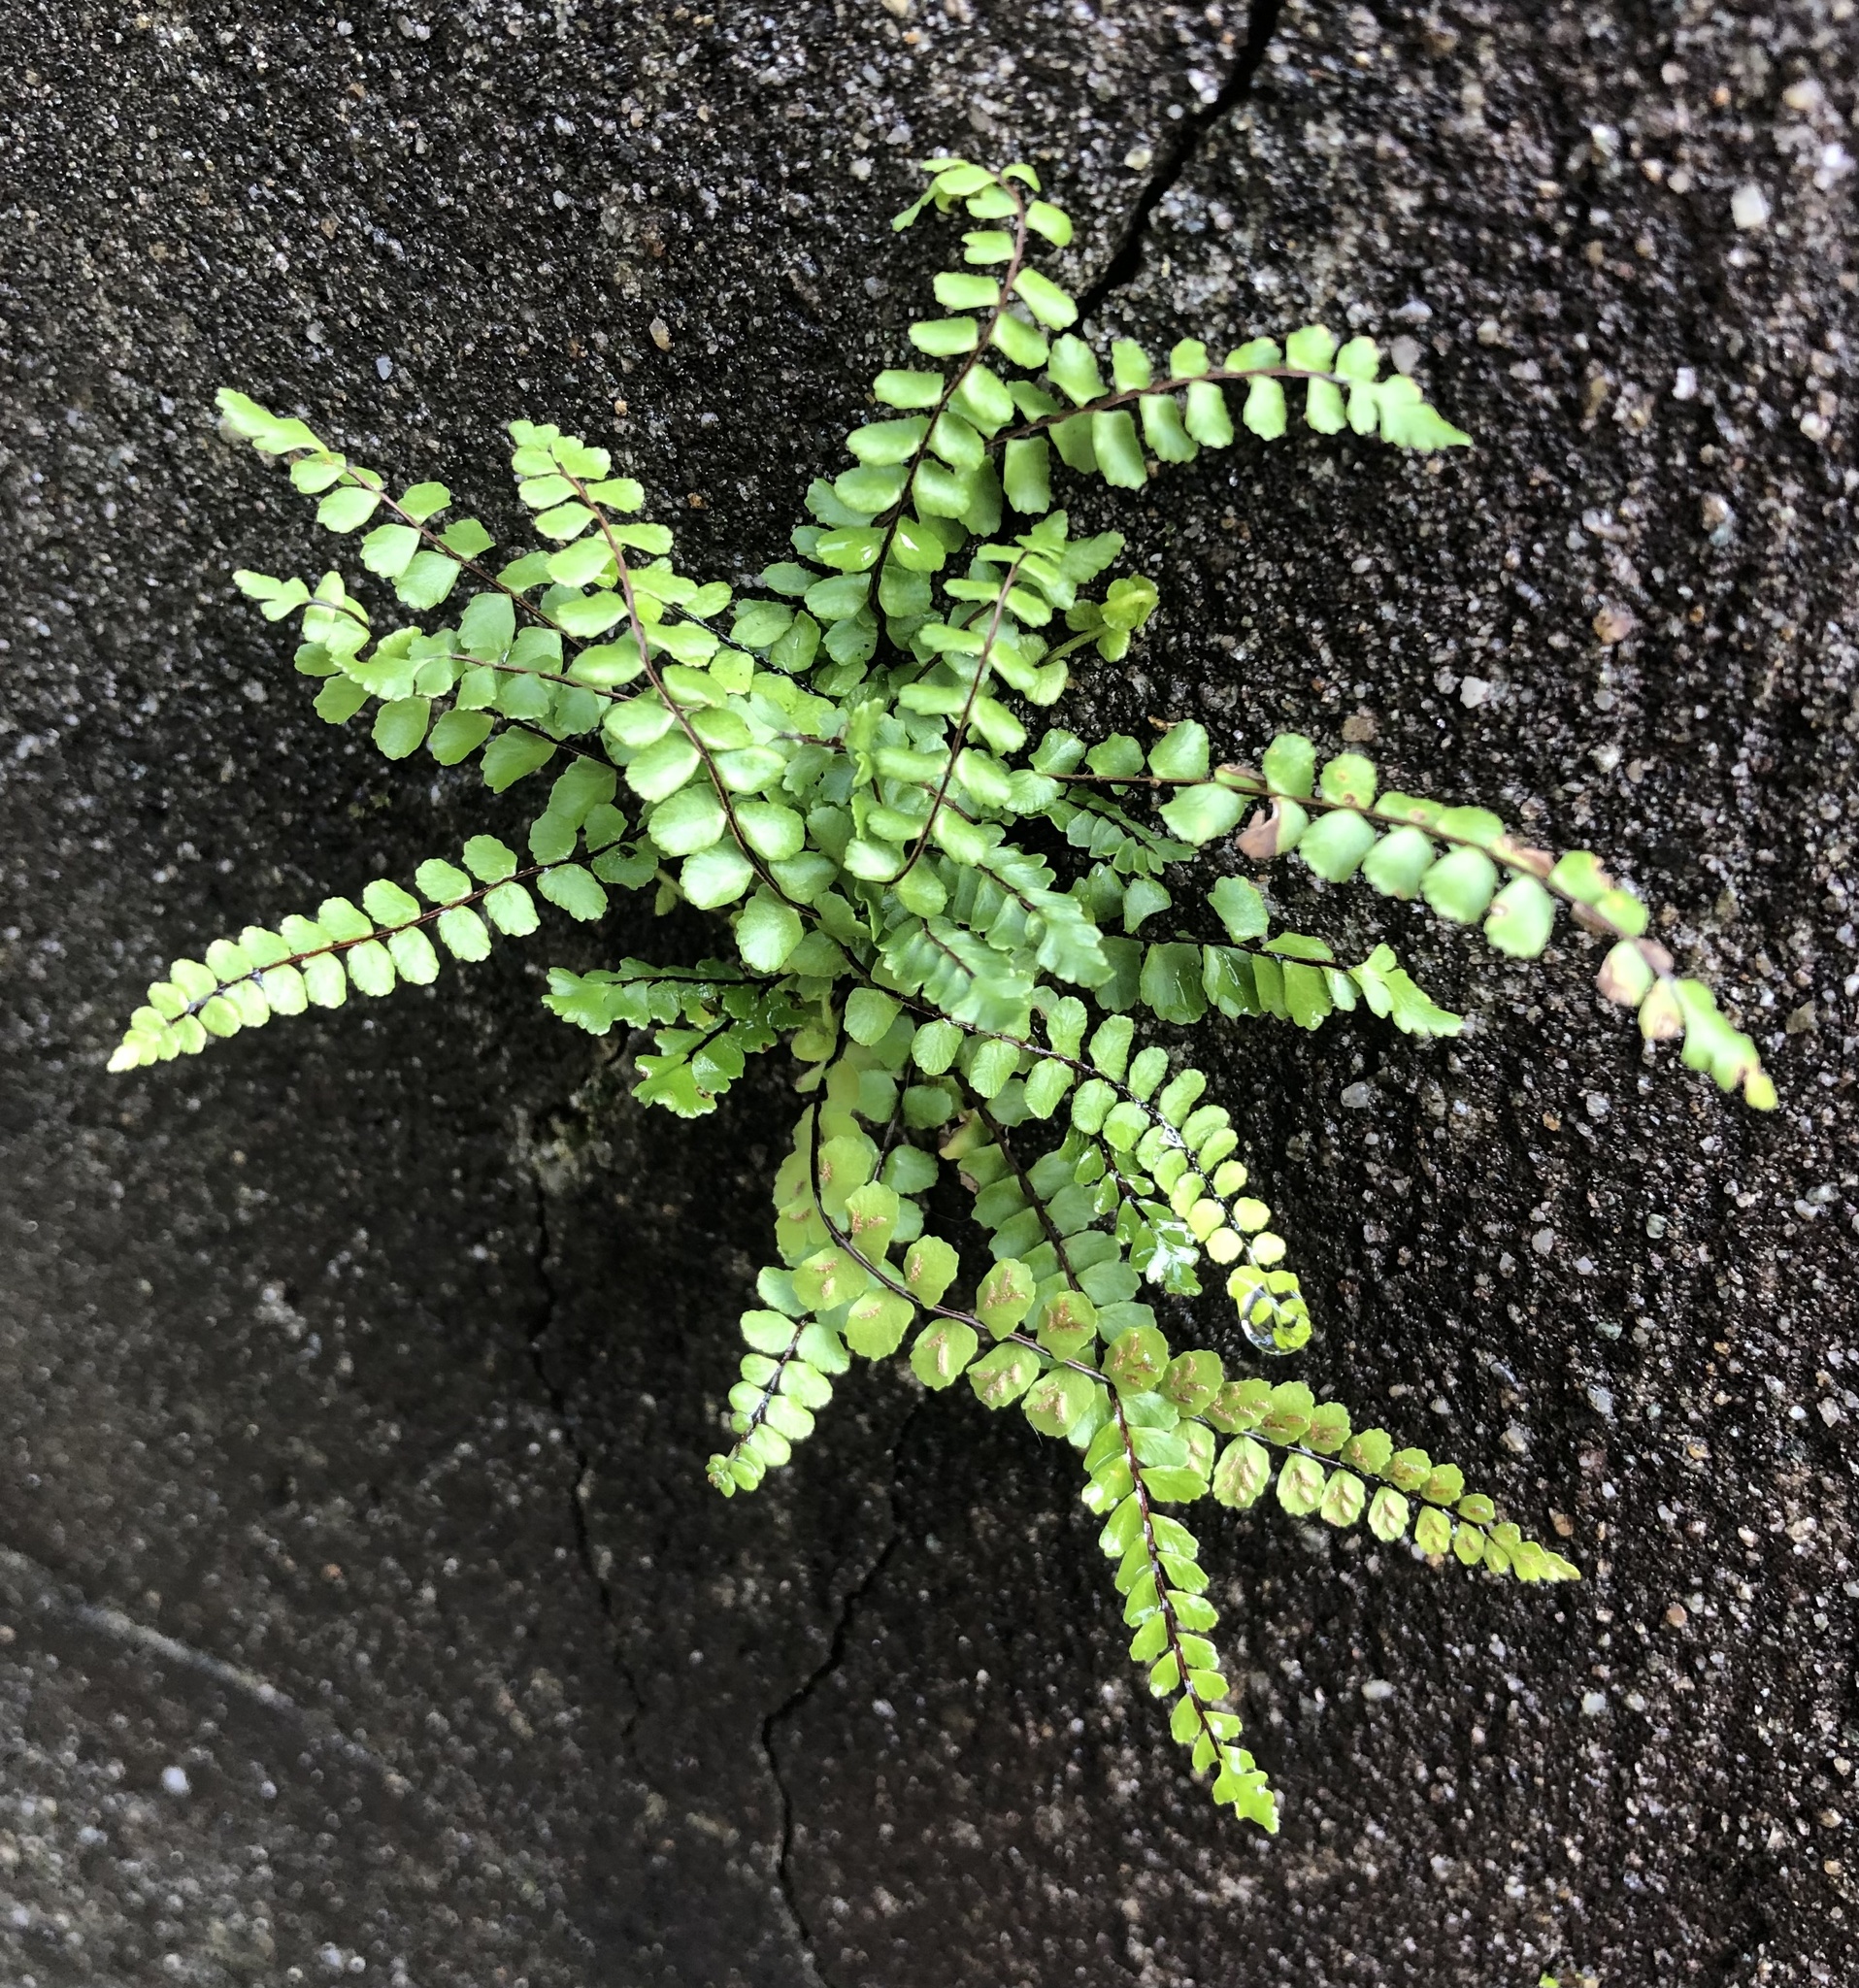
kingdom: Plantae
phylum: Tracheophyta
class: Polypodiopsida
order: Polypodiales
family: Aspleniaceae
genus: Asplenium
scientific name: Asplenium trichomanes
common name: Maidenhair spleenwort
